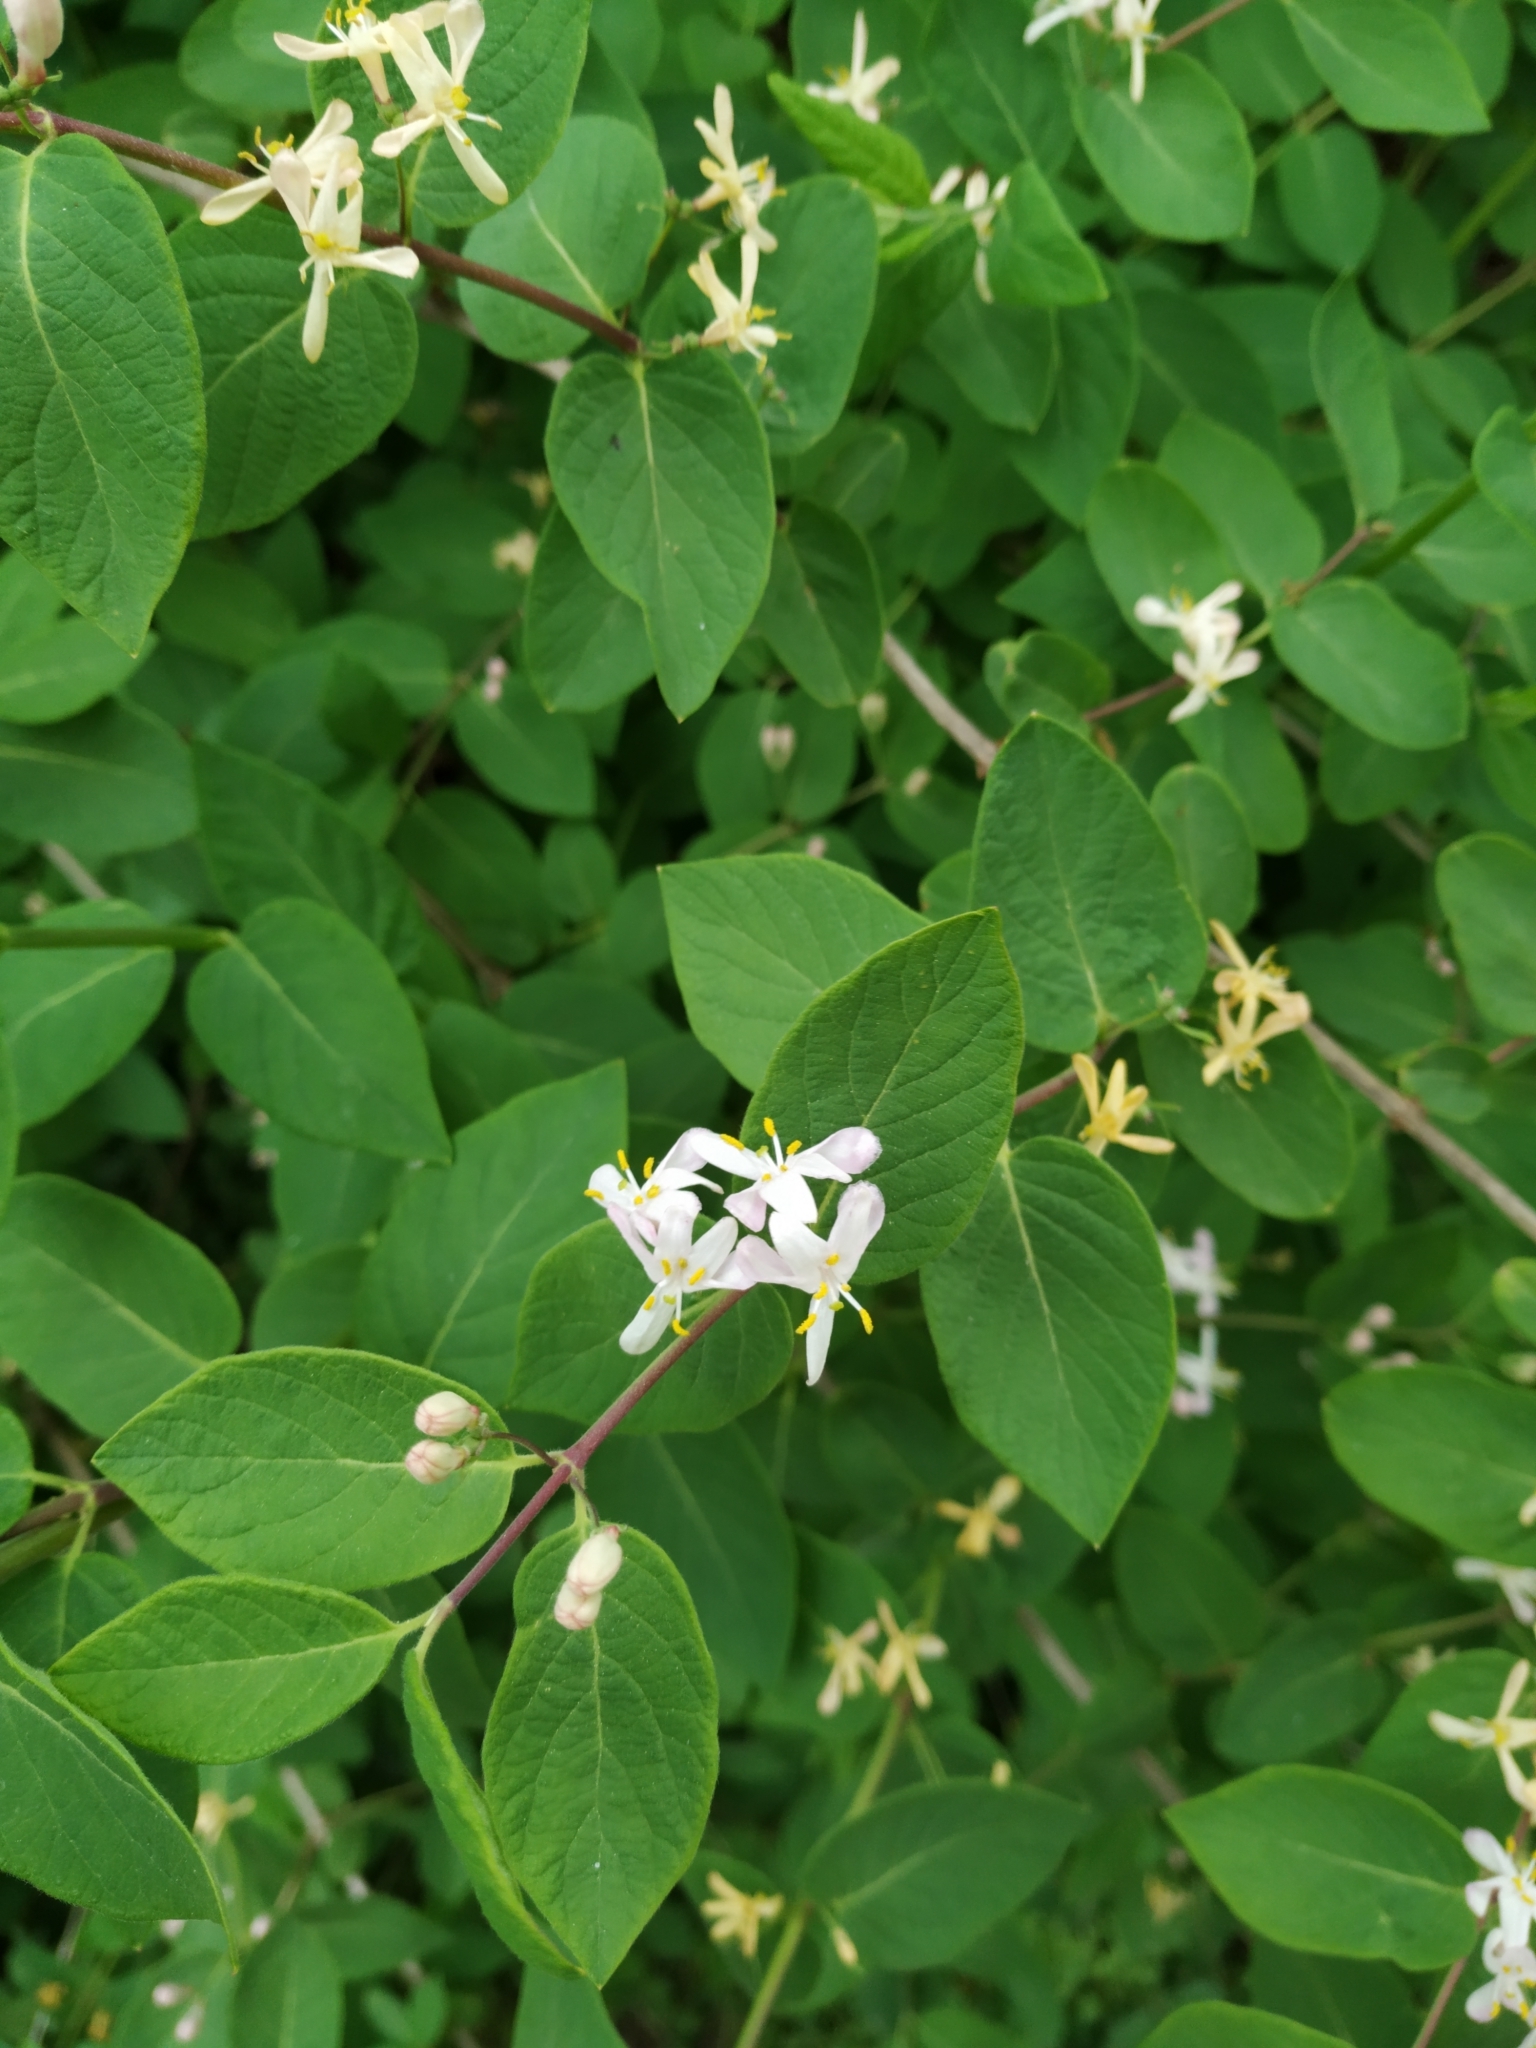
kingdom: Plantae
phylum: Tracheophyta
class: Magnoliopsida
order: Dipsacales
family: Caprifoliaceae
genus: Lonicera
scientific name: Lonicera xylosteum
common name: Fly honeysuckle
